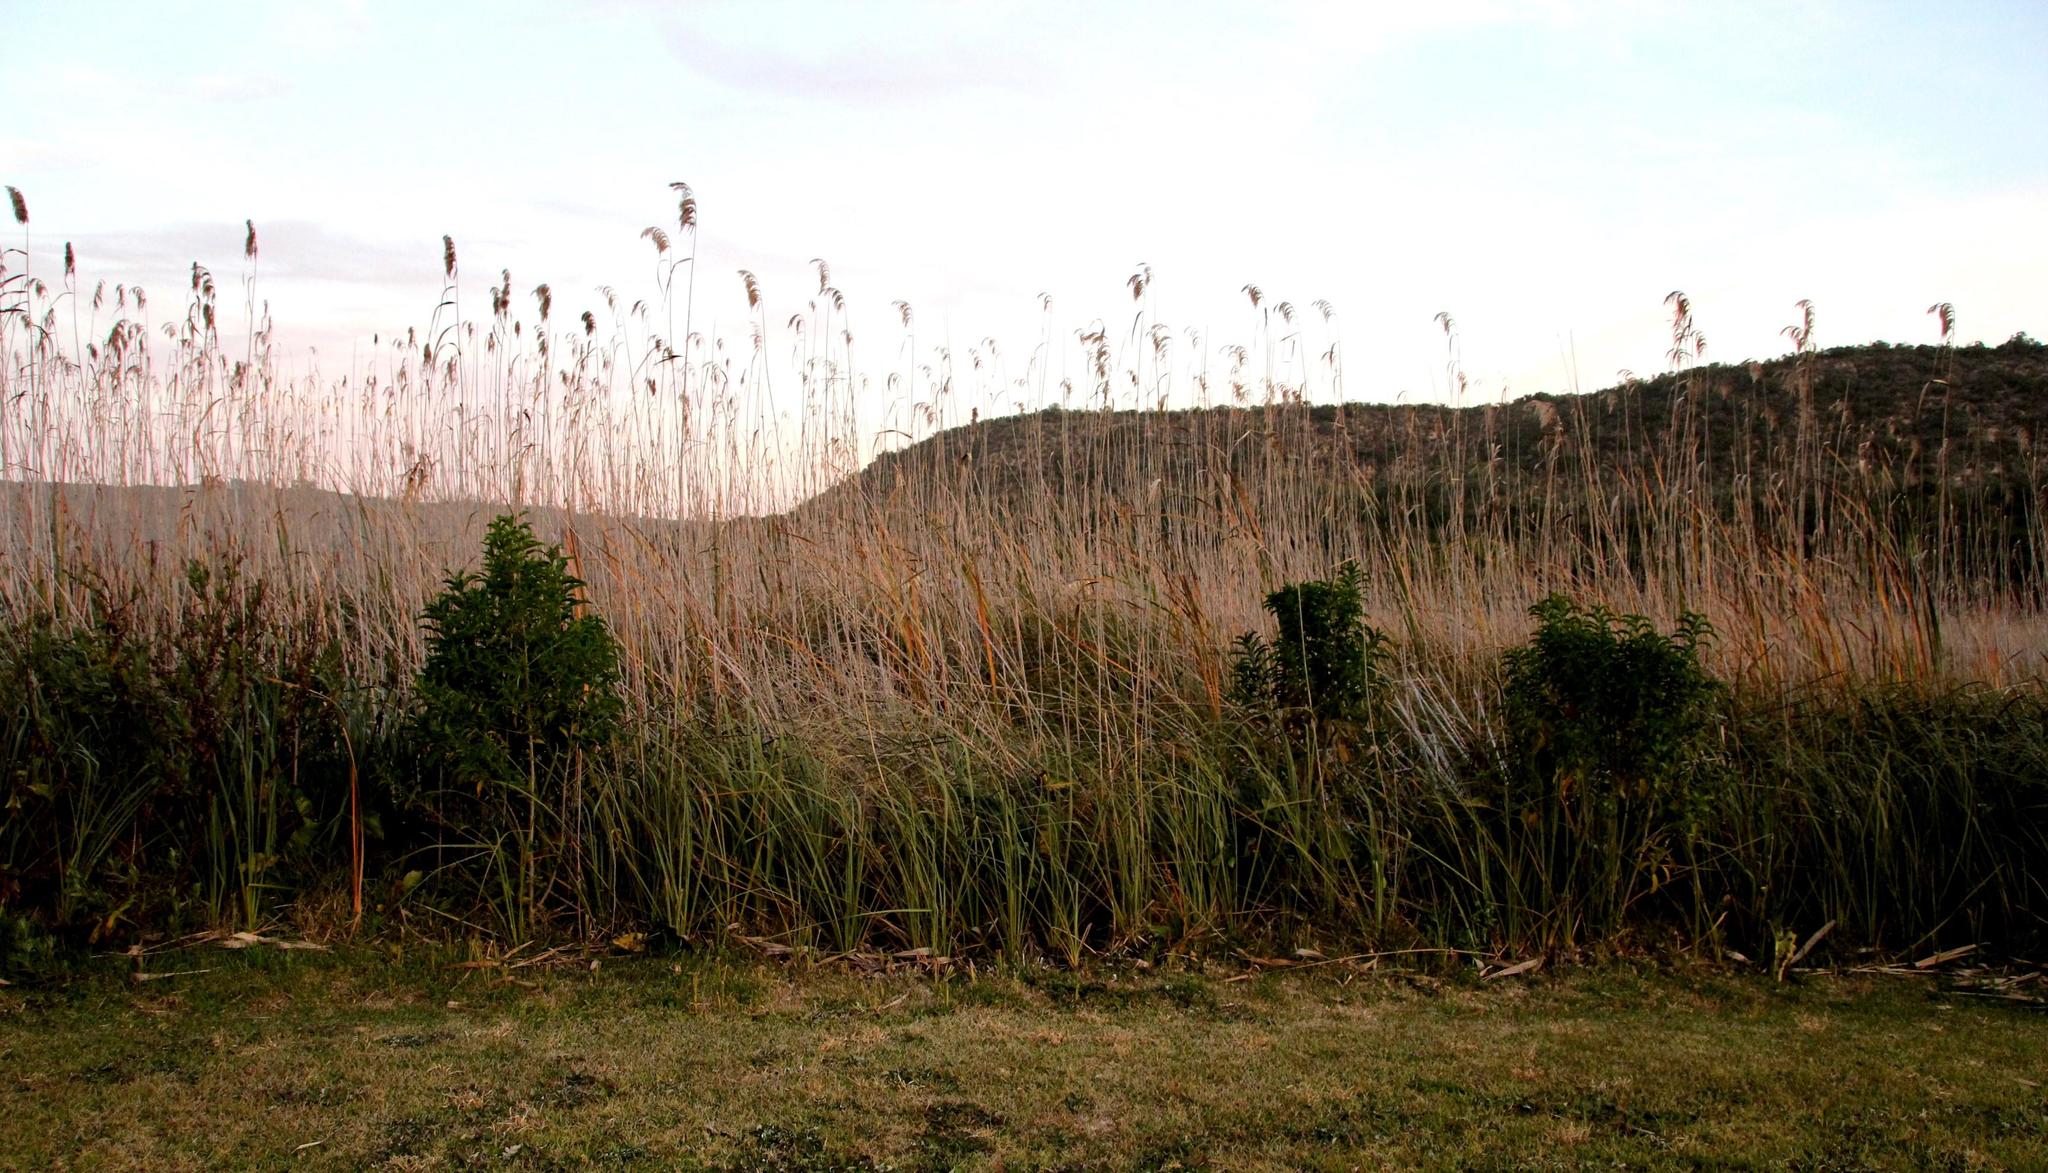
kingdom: Plantae
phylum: Tracheophyta
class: Liliopsida
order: Poales
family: Poaceae
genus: Phragmites
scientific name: Phragmites australis
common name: Common reed
